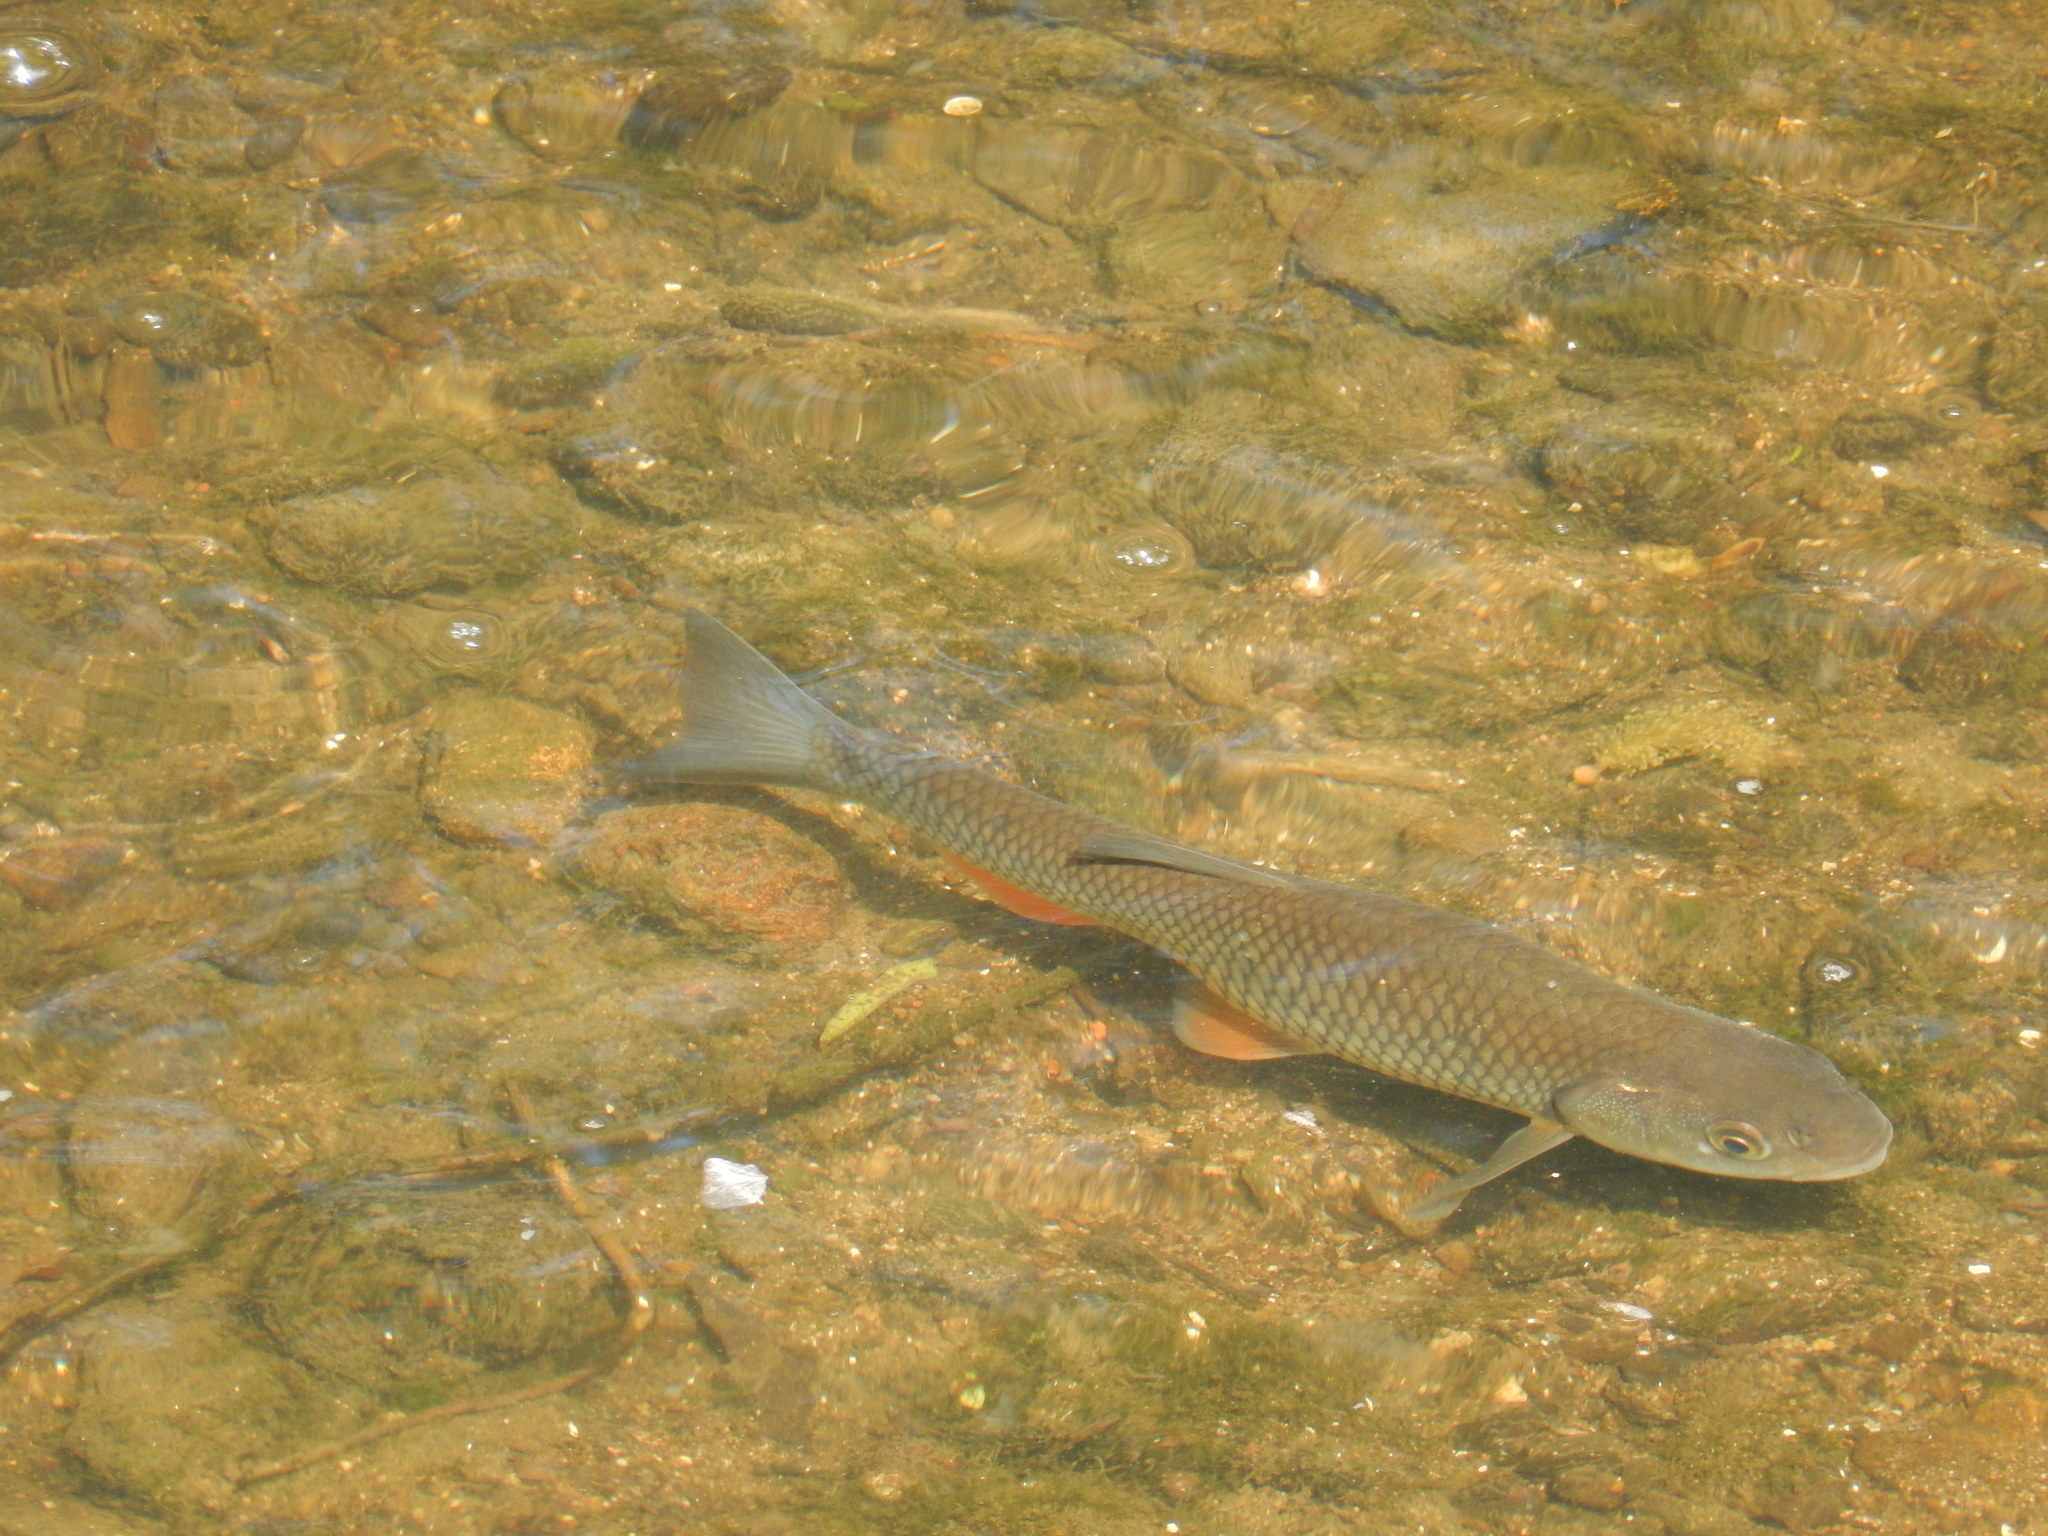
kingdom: Animalia
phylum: Chordata
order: Cypriniformes
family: Cyprinidae
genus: Squalius
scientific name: Squalius cephalus
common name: Chub
